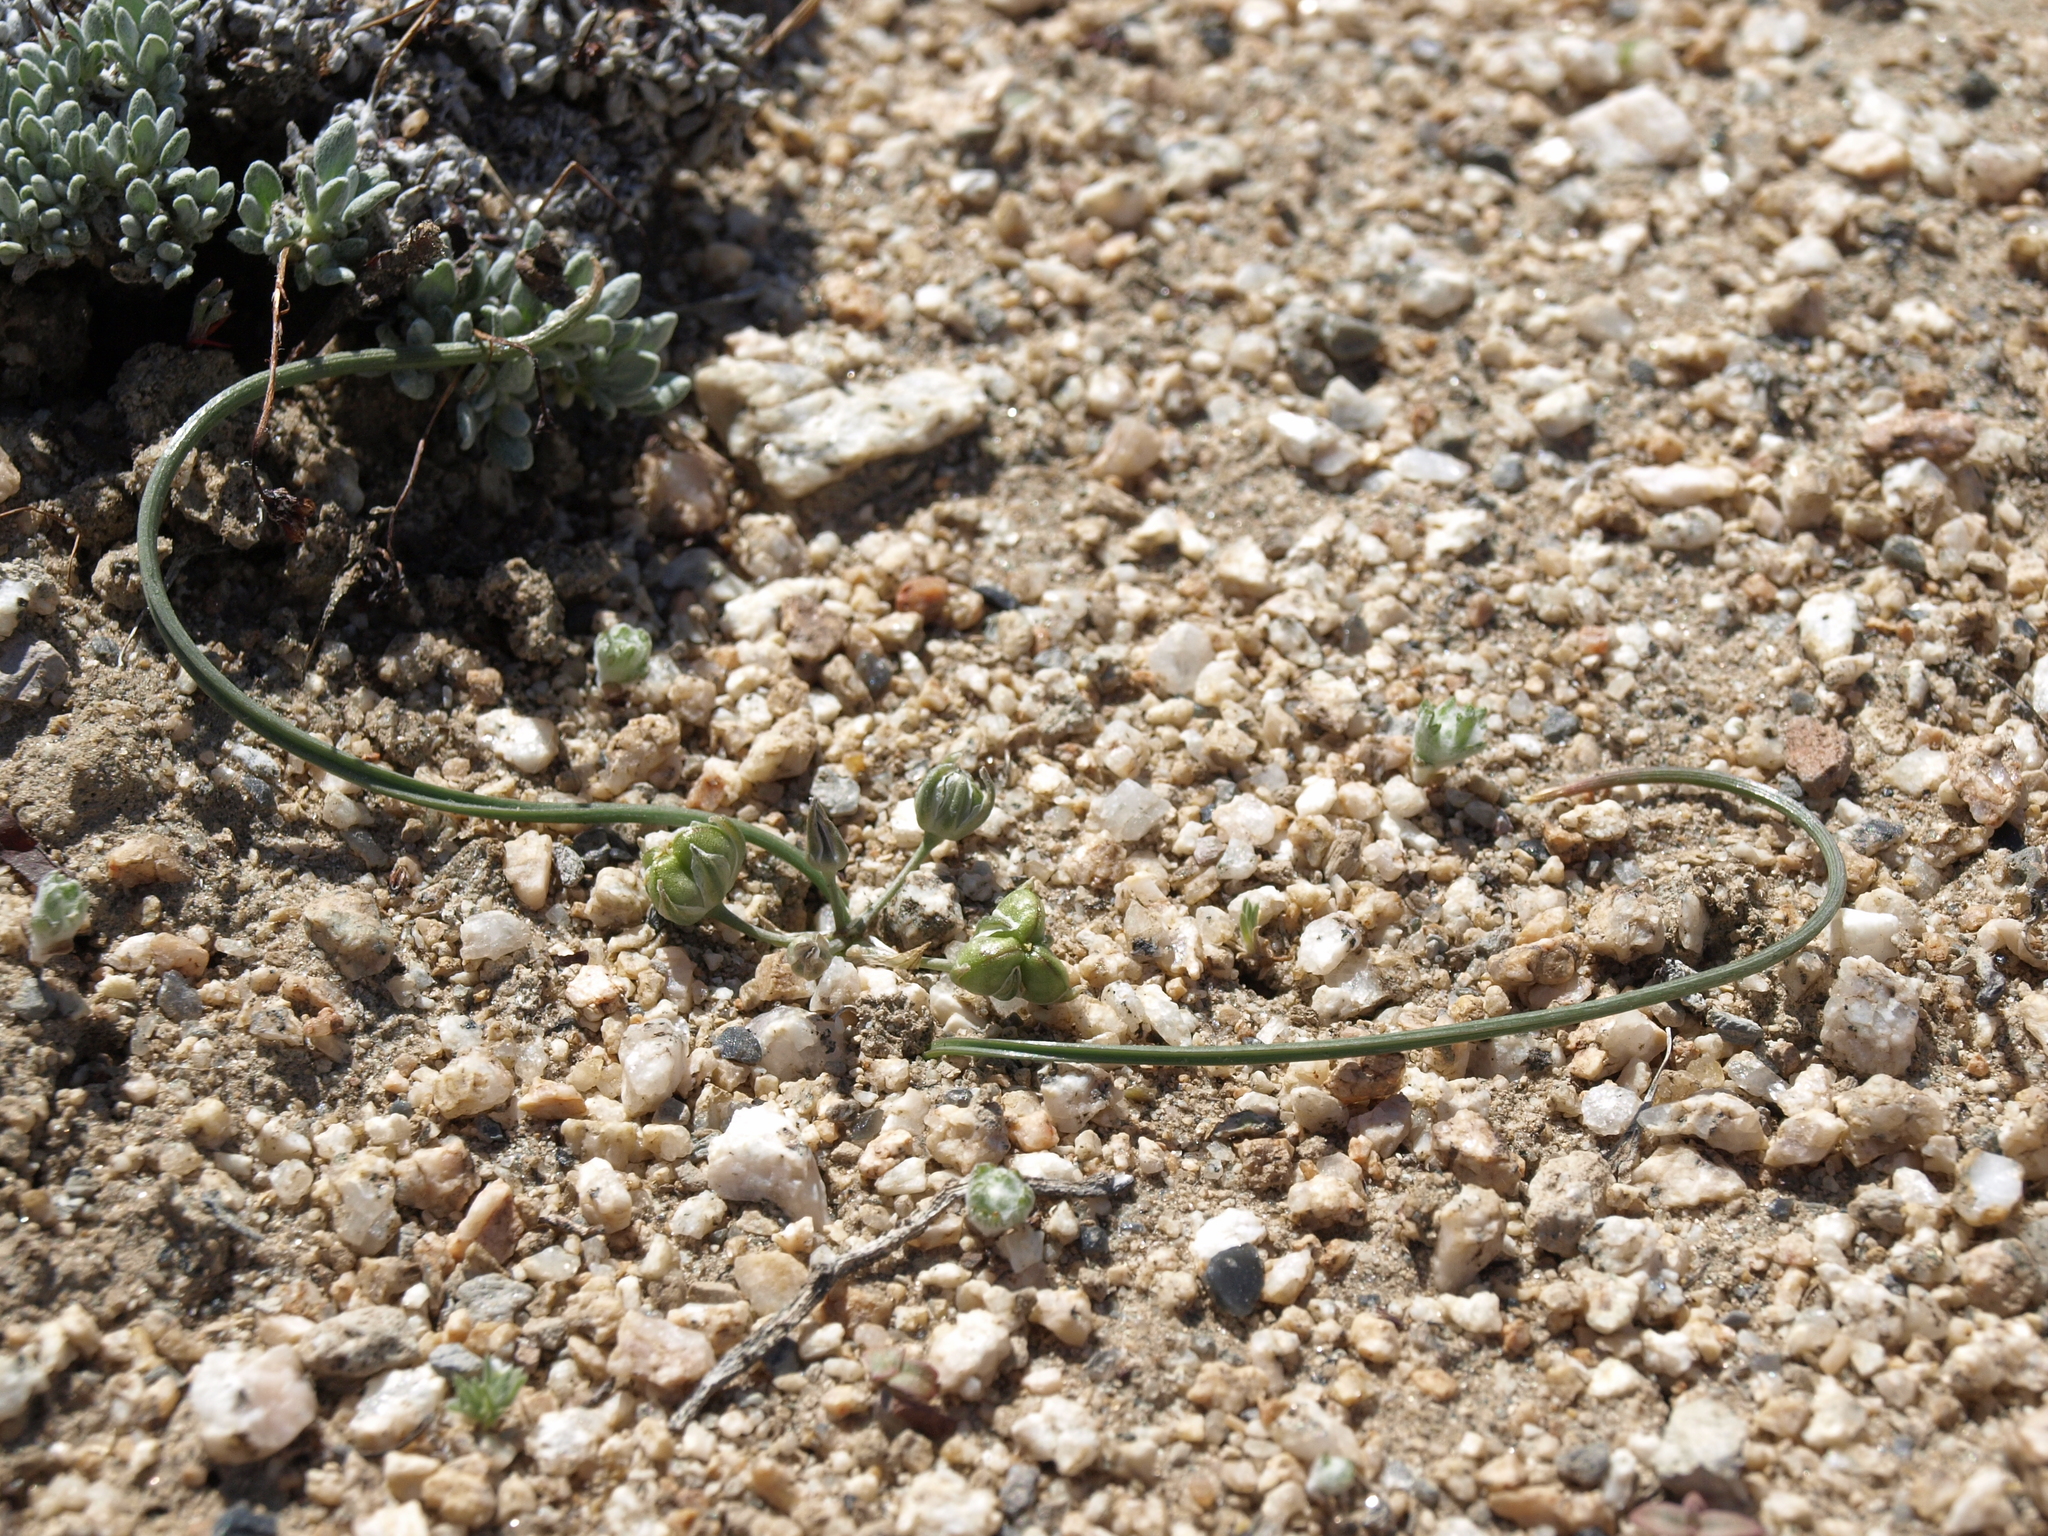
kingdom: Plantae
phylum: Tracheophyta
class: Liliopsida
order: Asparagales
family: Asparagaceae
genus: Muilla
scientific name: Muilla coronata
